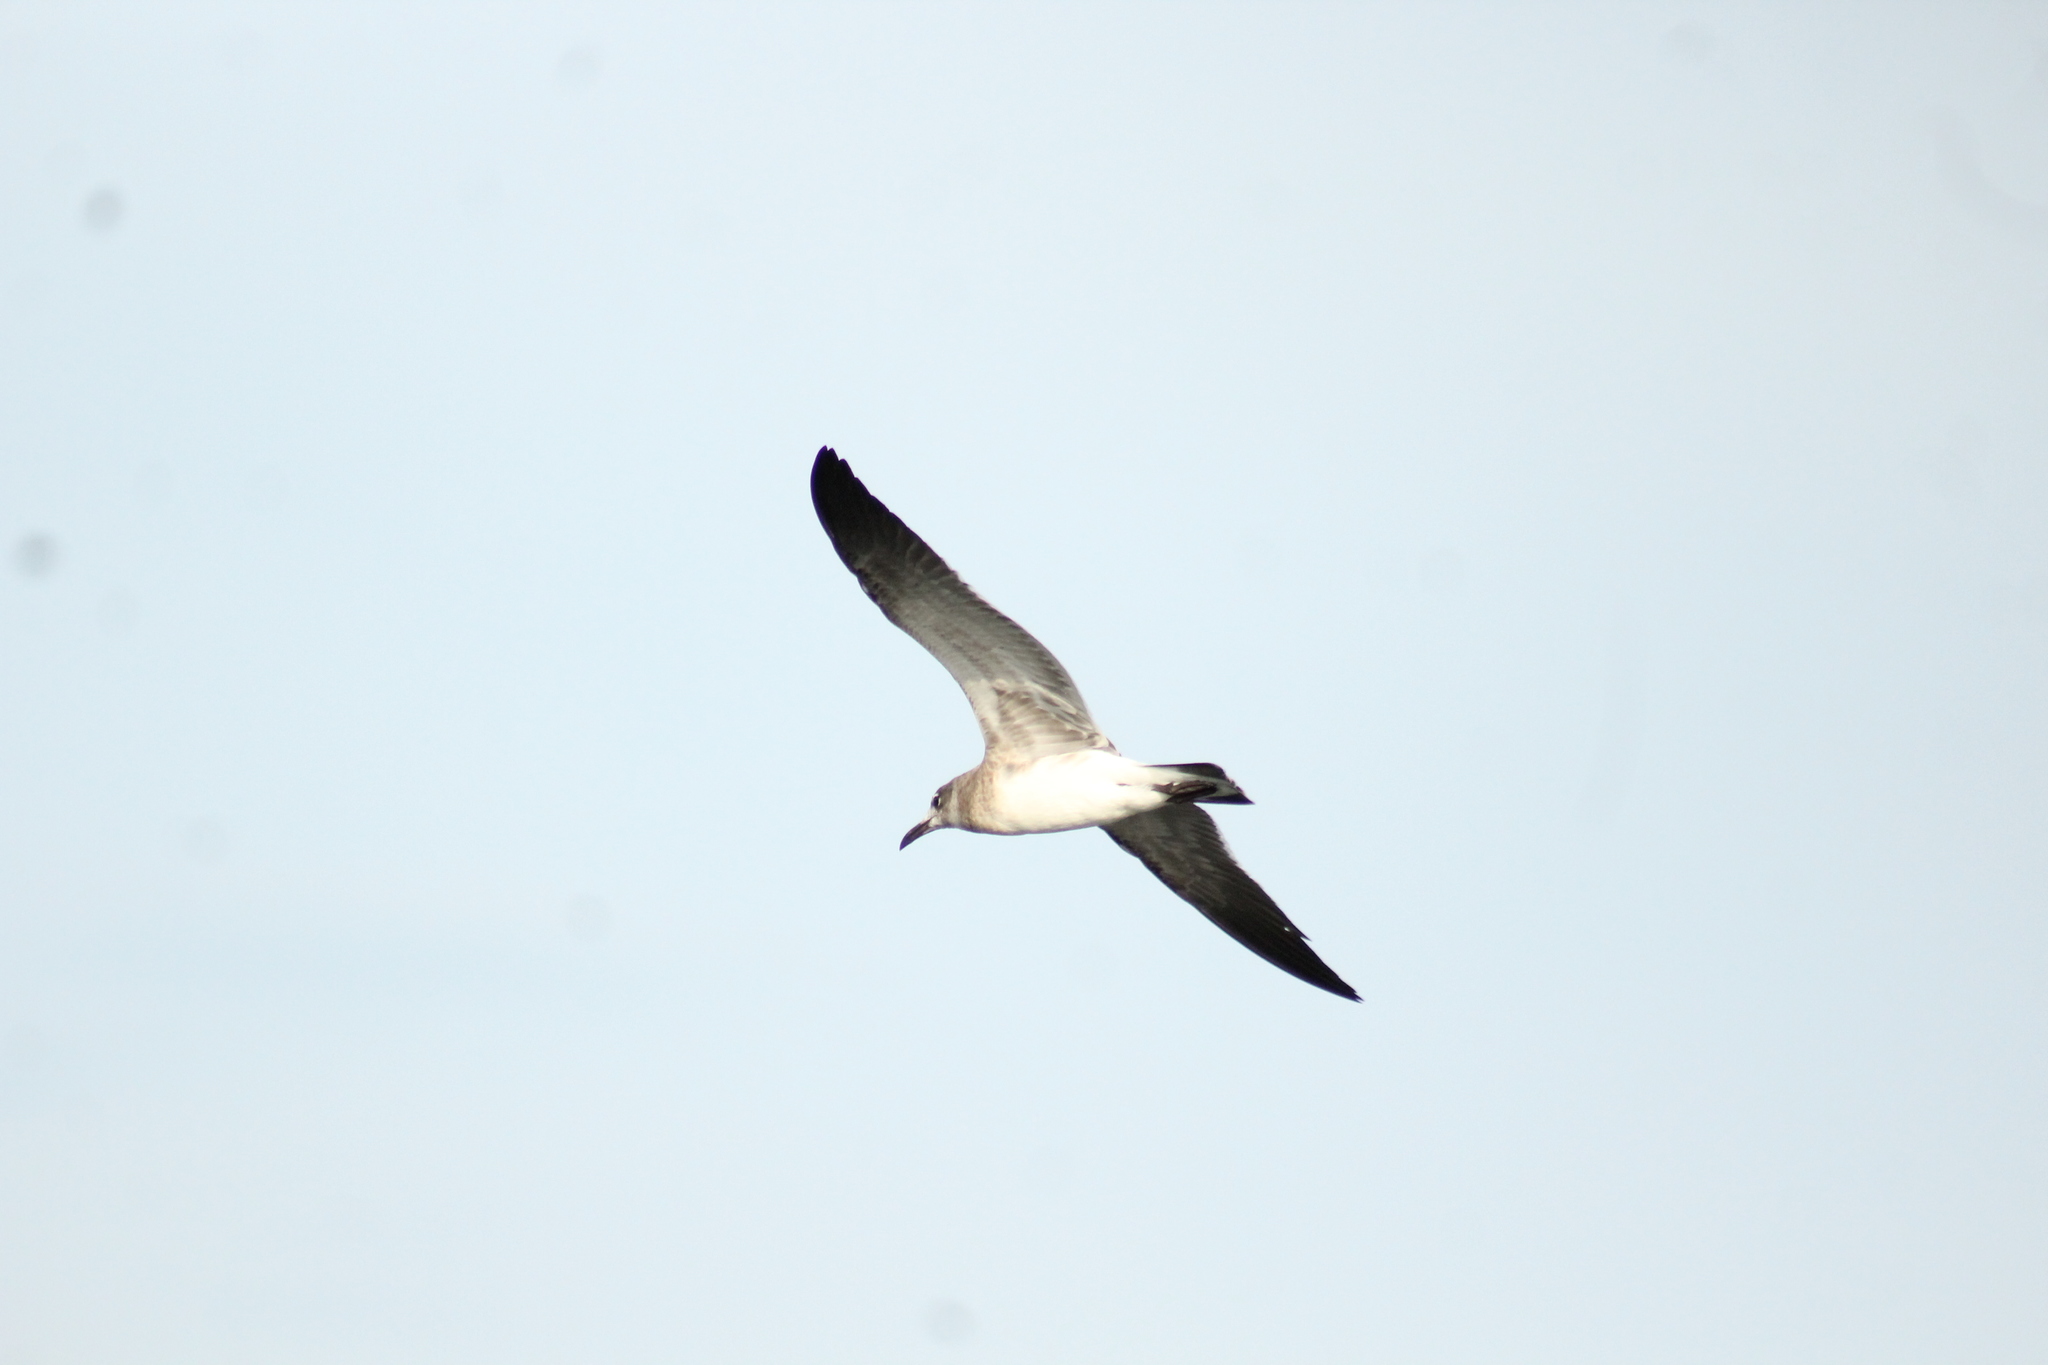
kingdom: Animalia
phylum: Chordata
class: Aves
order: Charadriiformes
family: Laridae
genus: Leucophaeus
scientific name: Leucophaeus atricilla
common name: Laughing gull
